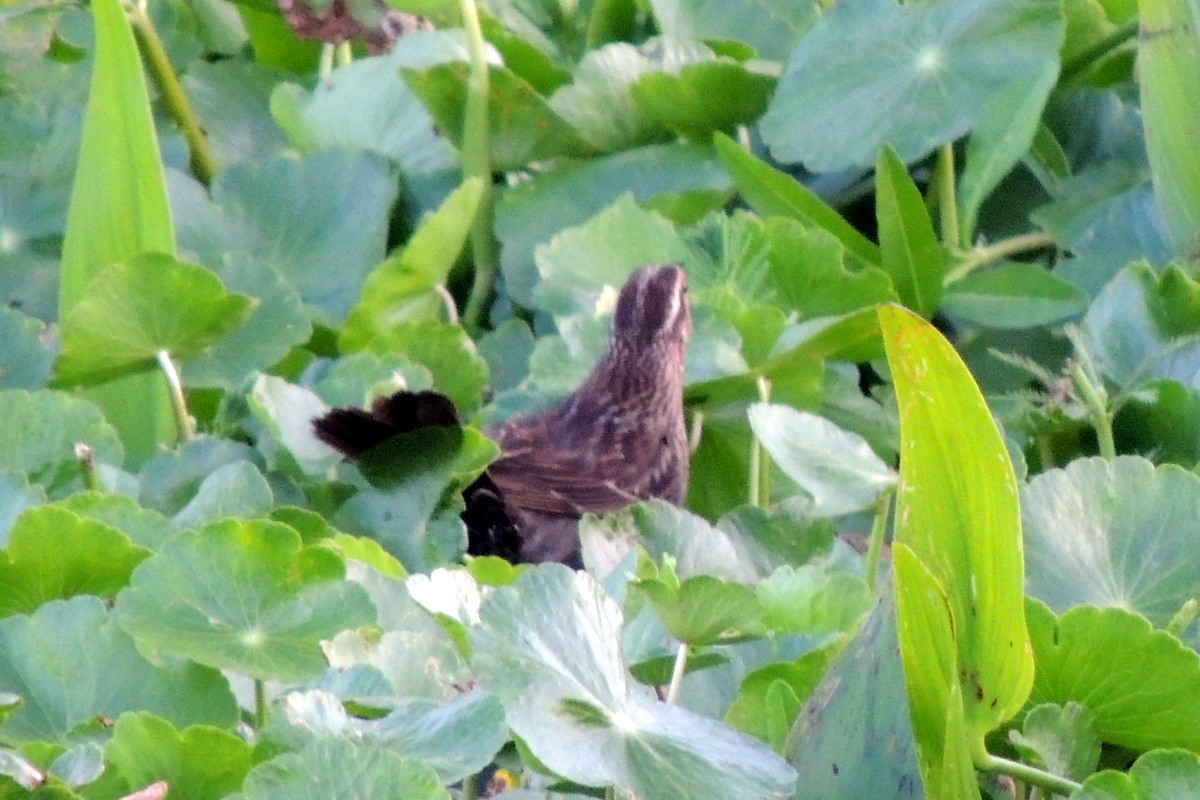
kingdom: Animalia
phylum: Chordata
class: Aves
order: Passeriformes
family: Icteridae
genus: Agelaius
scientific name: Agelaius phoeniceus
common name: Red-winged blackbird
